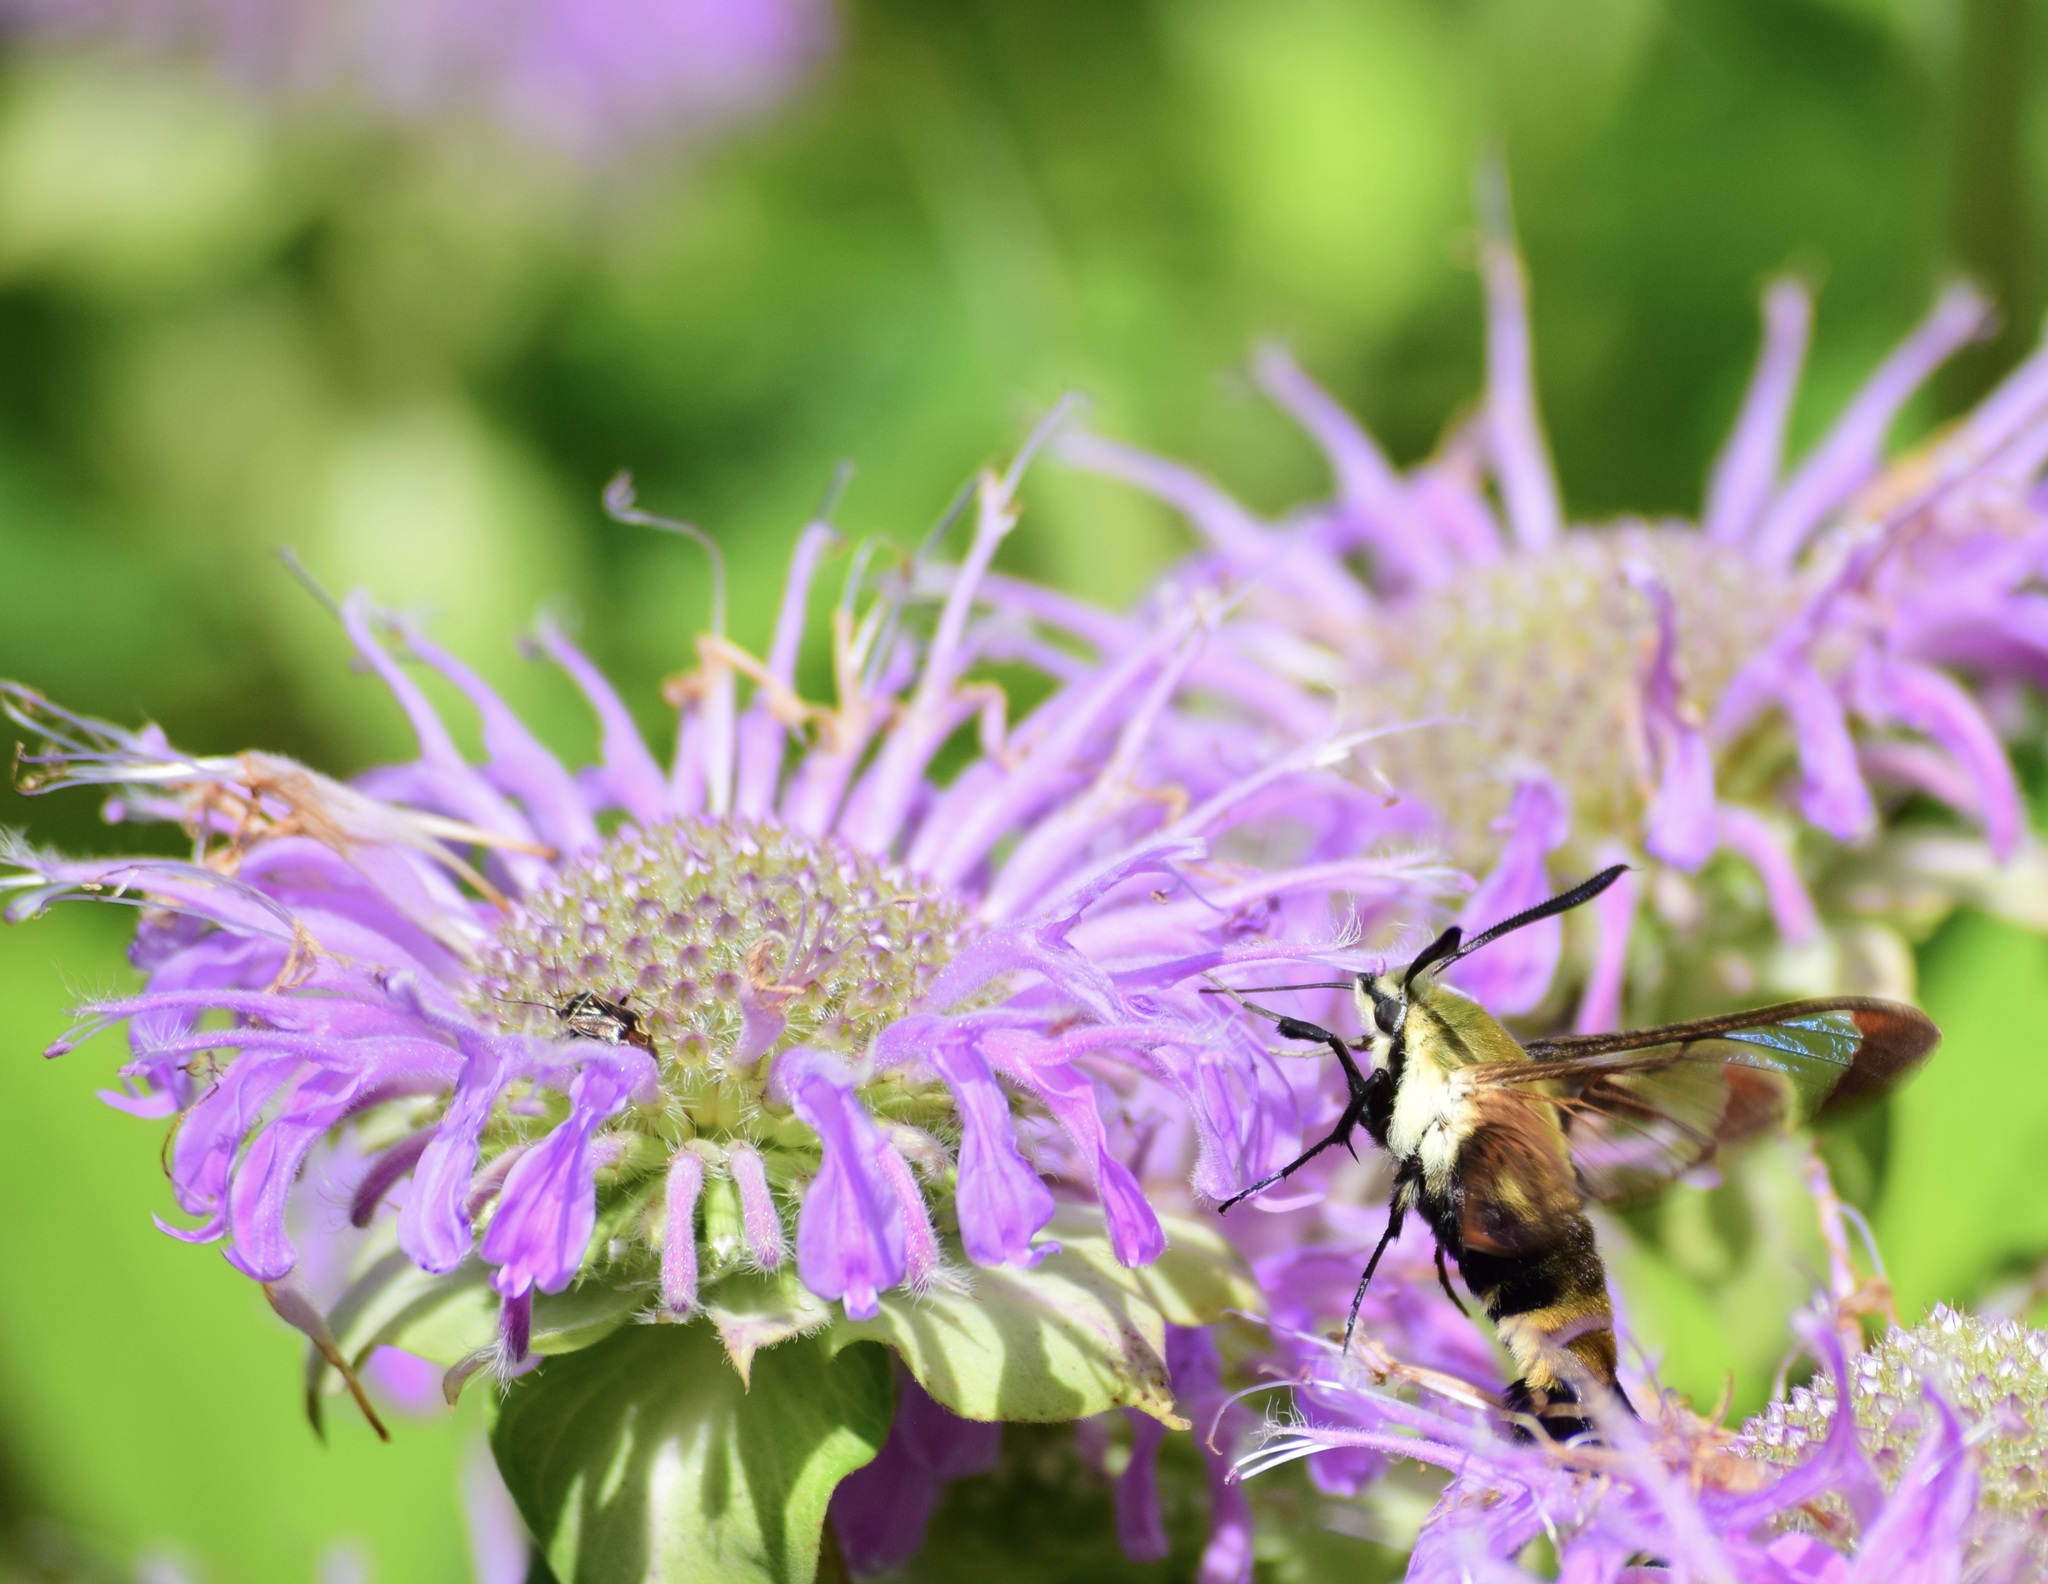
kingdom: Animalia
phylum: Arthropoda
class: Insecta
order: Lepidoptera
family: Sphingidae
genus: Hemaris
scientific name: Hemaris diffinis
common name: Bumblebee moth
